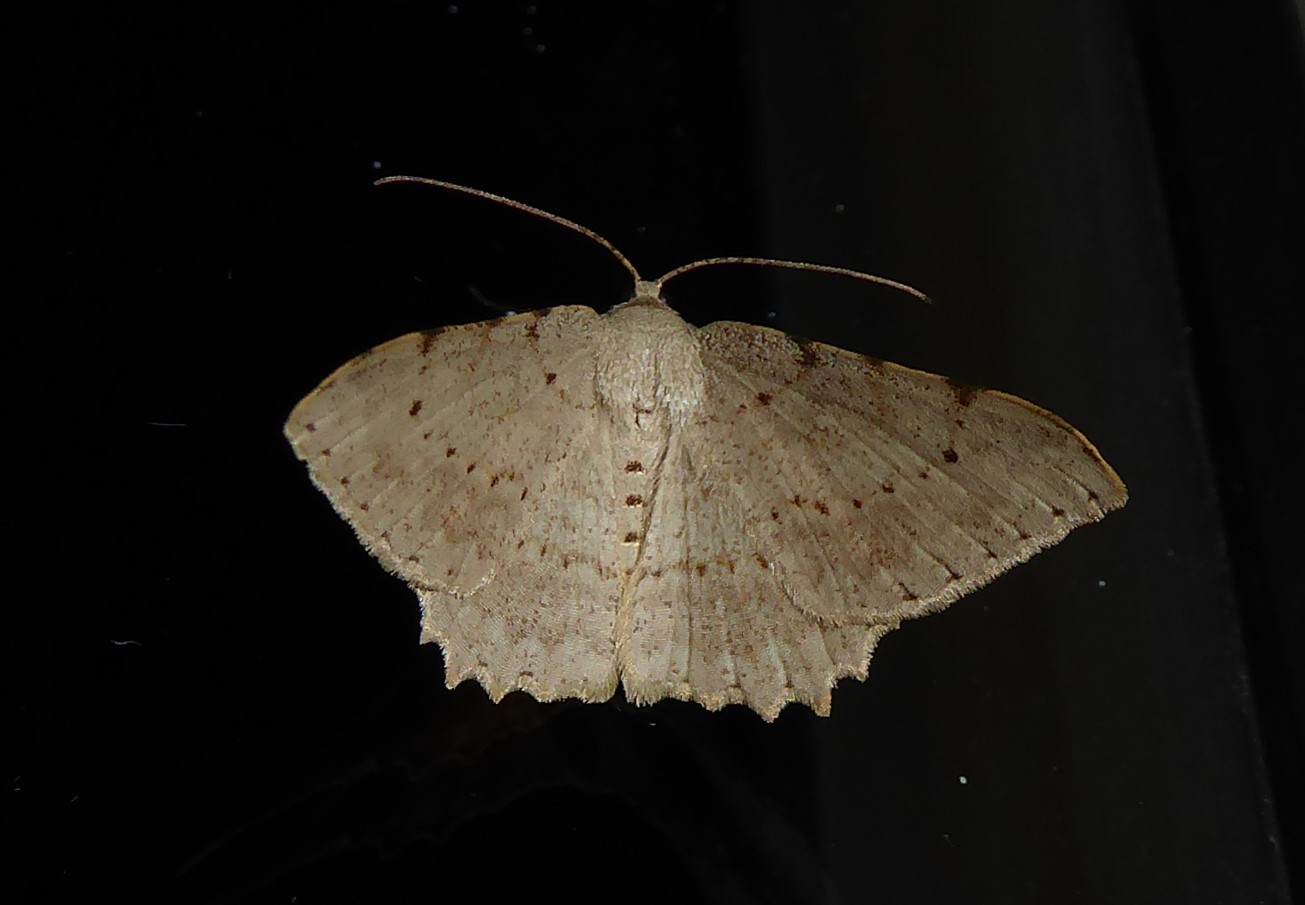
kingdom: Animalia
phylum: Arthropoda
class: Insecta
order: Lepidoptera
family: Geometridae
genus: Luxiaria
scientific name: Luxiaria ochrophara
